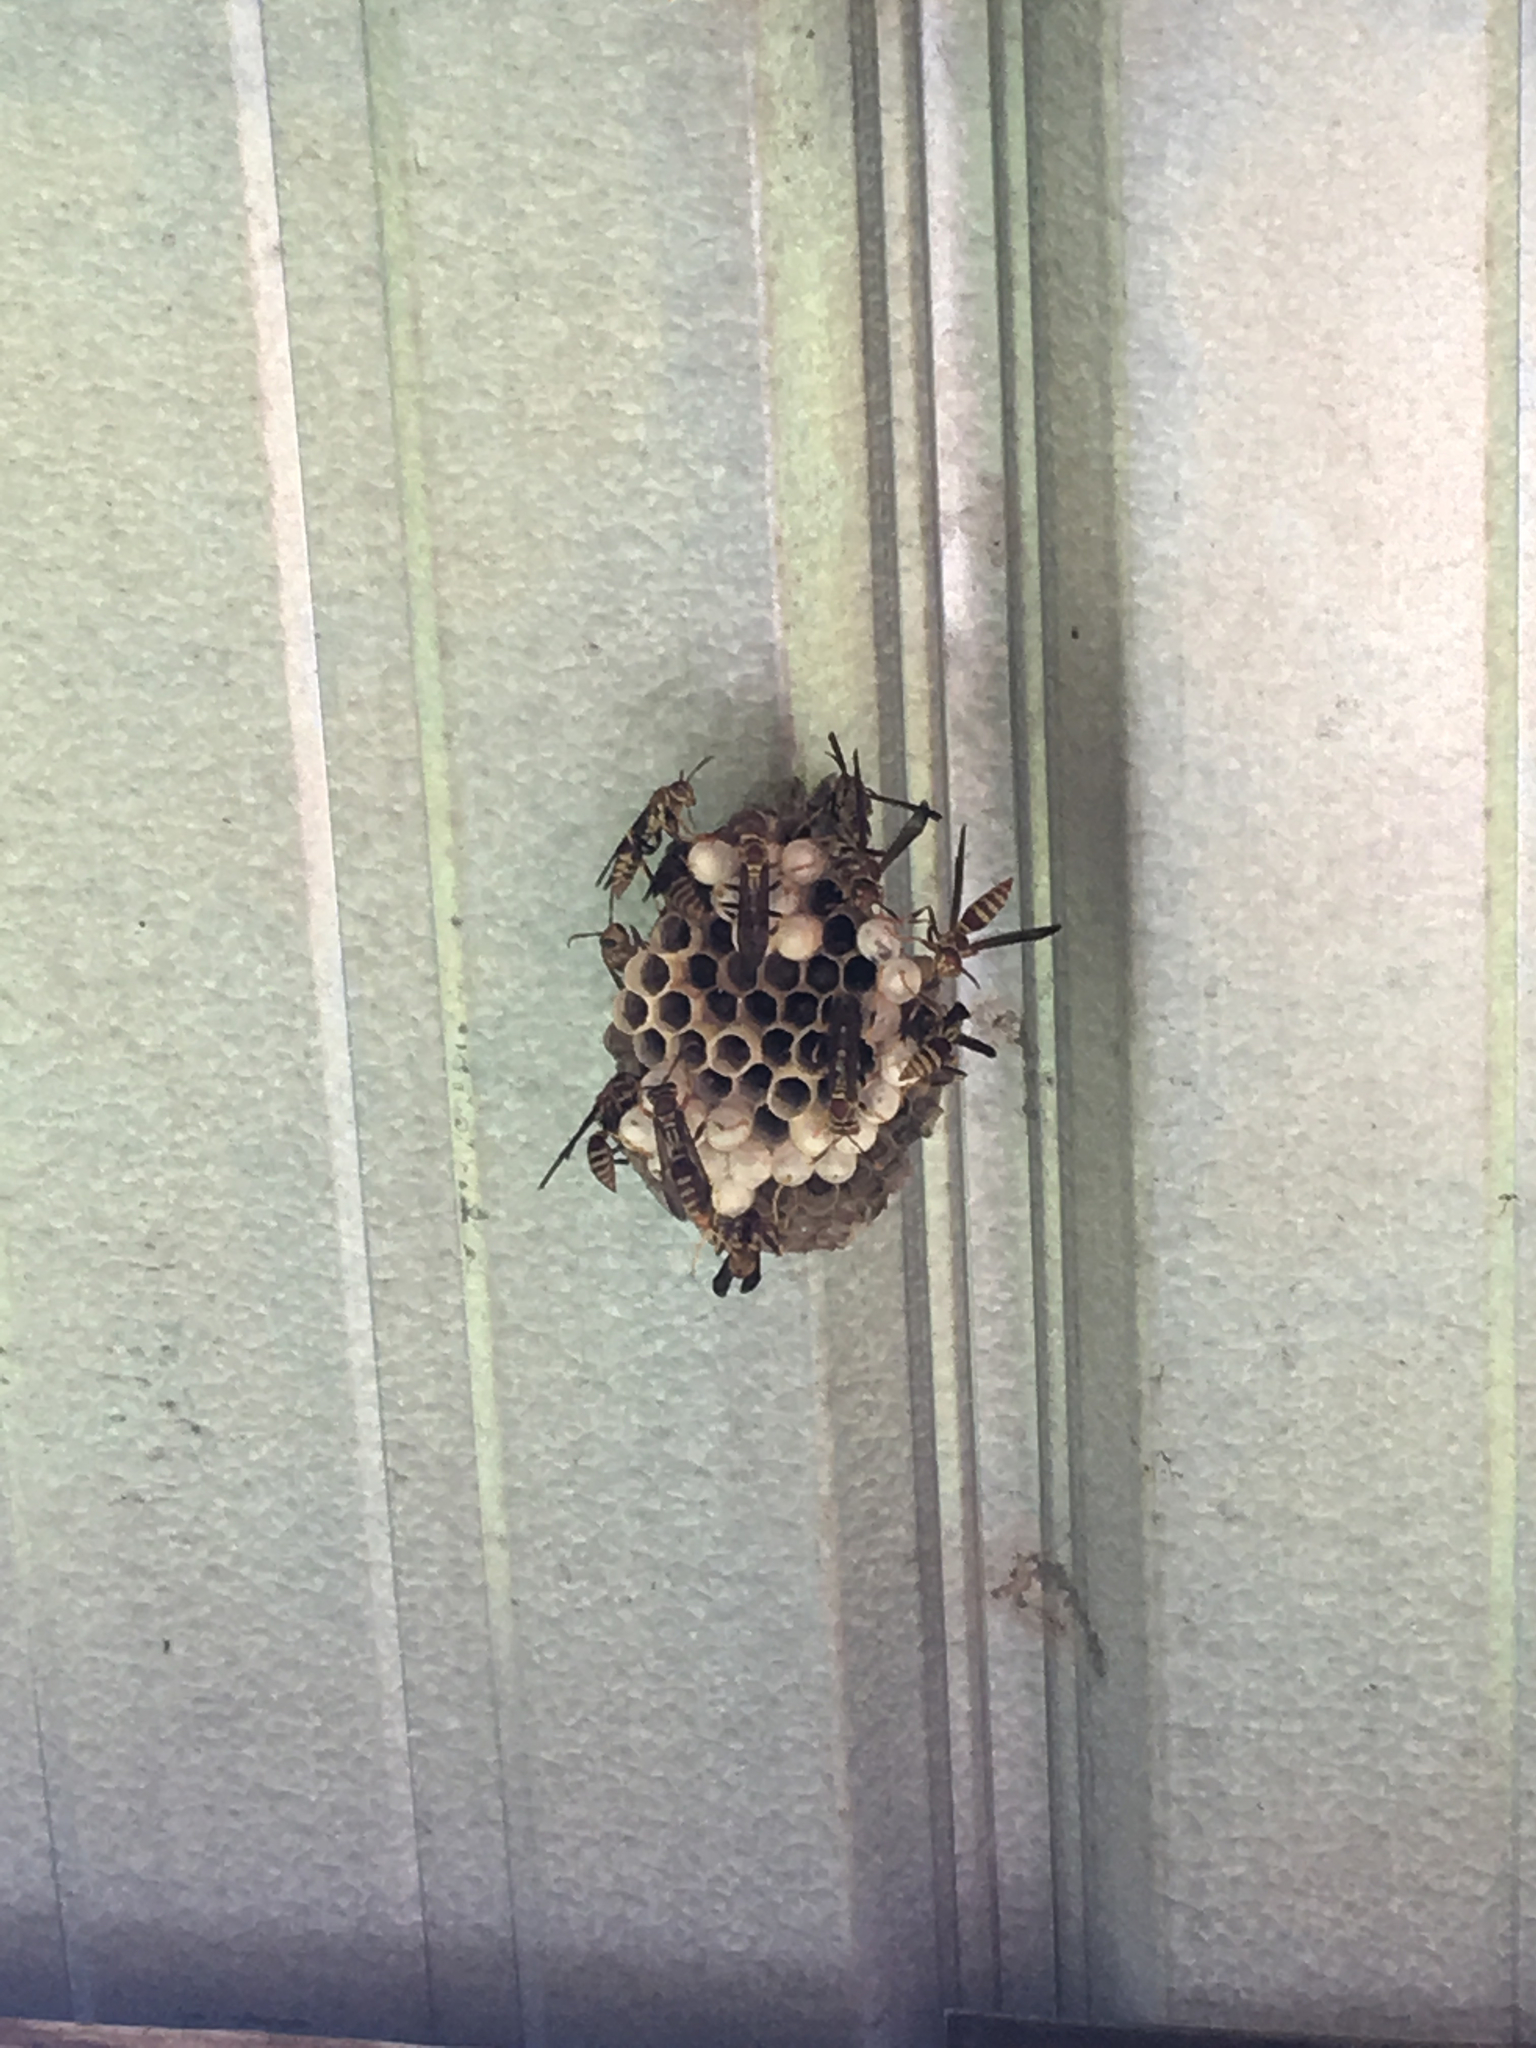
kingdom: Animalia
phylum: Arthropoda
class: Insecta
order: Hymenoptera
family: Eumenidae
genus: Polistes
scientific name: Polistes exclamans
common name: Paper wasp
